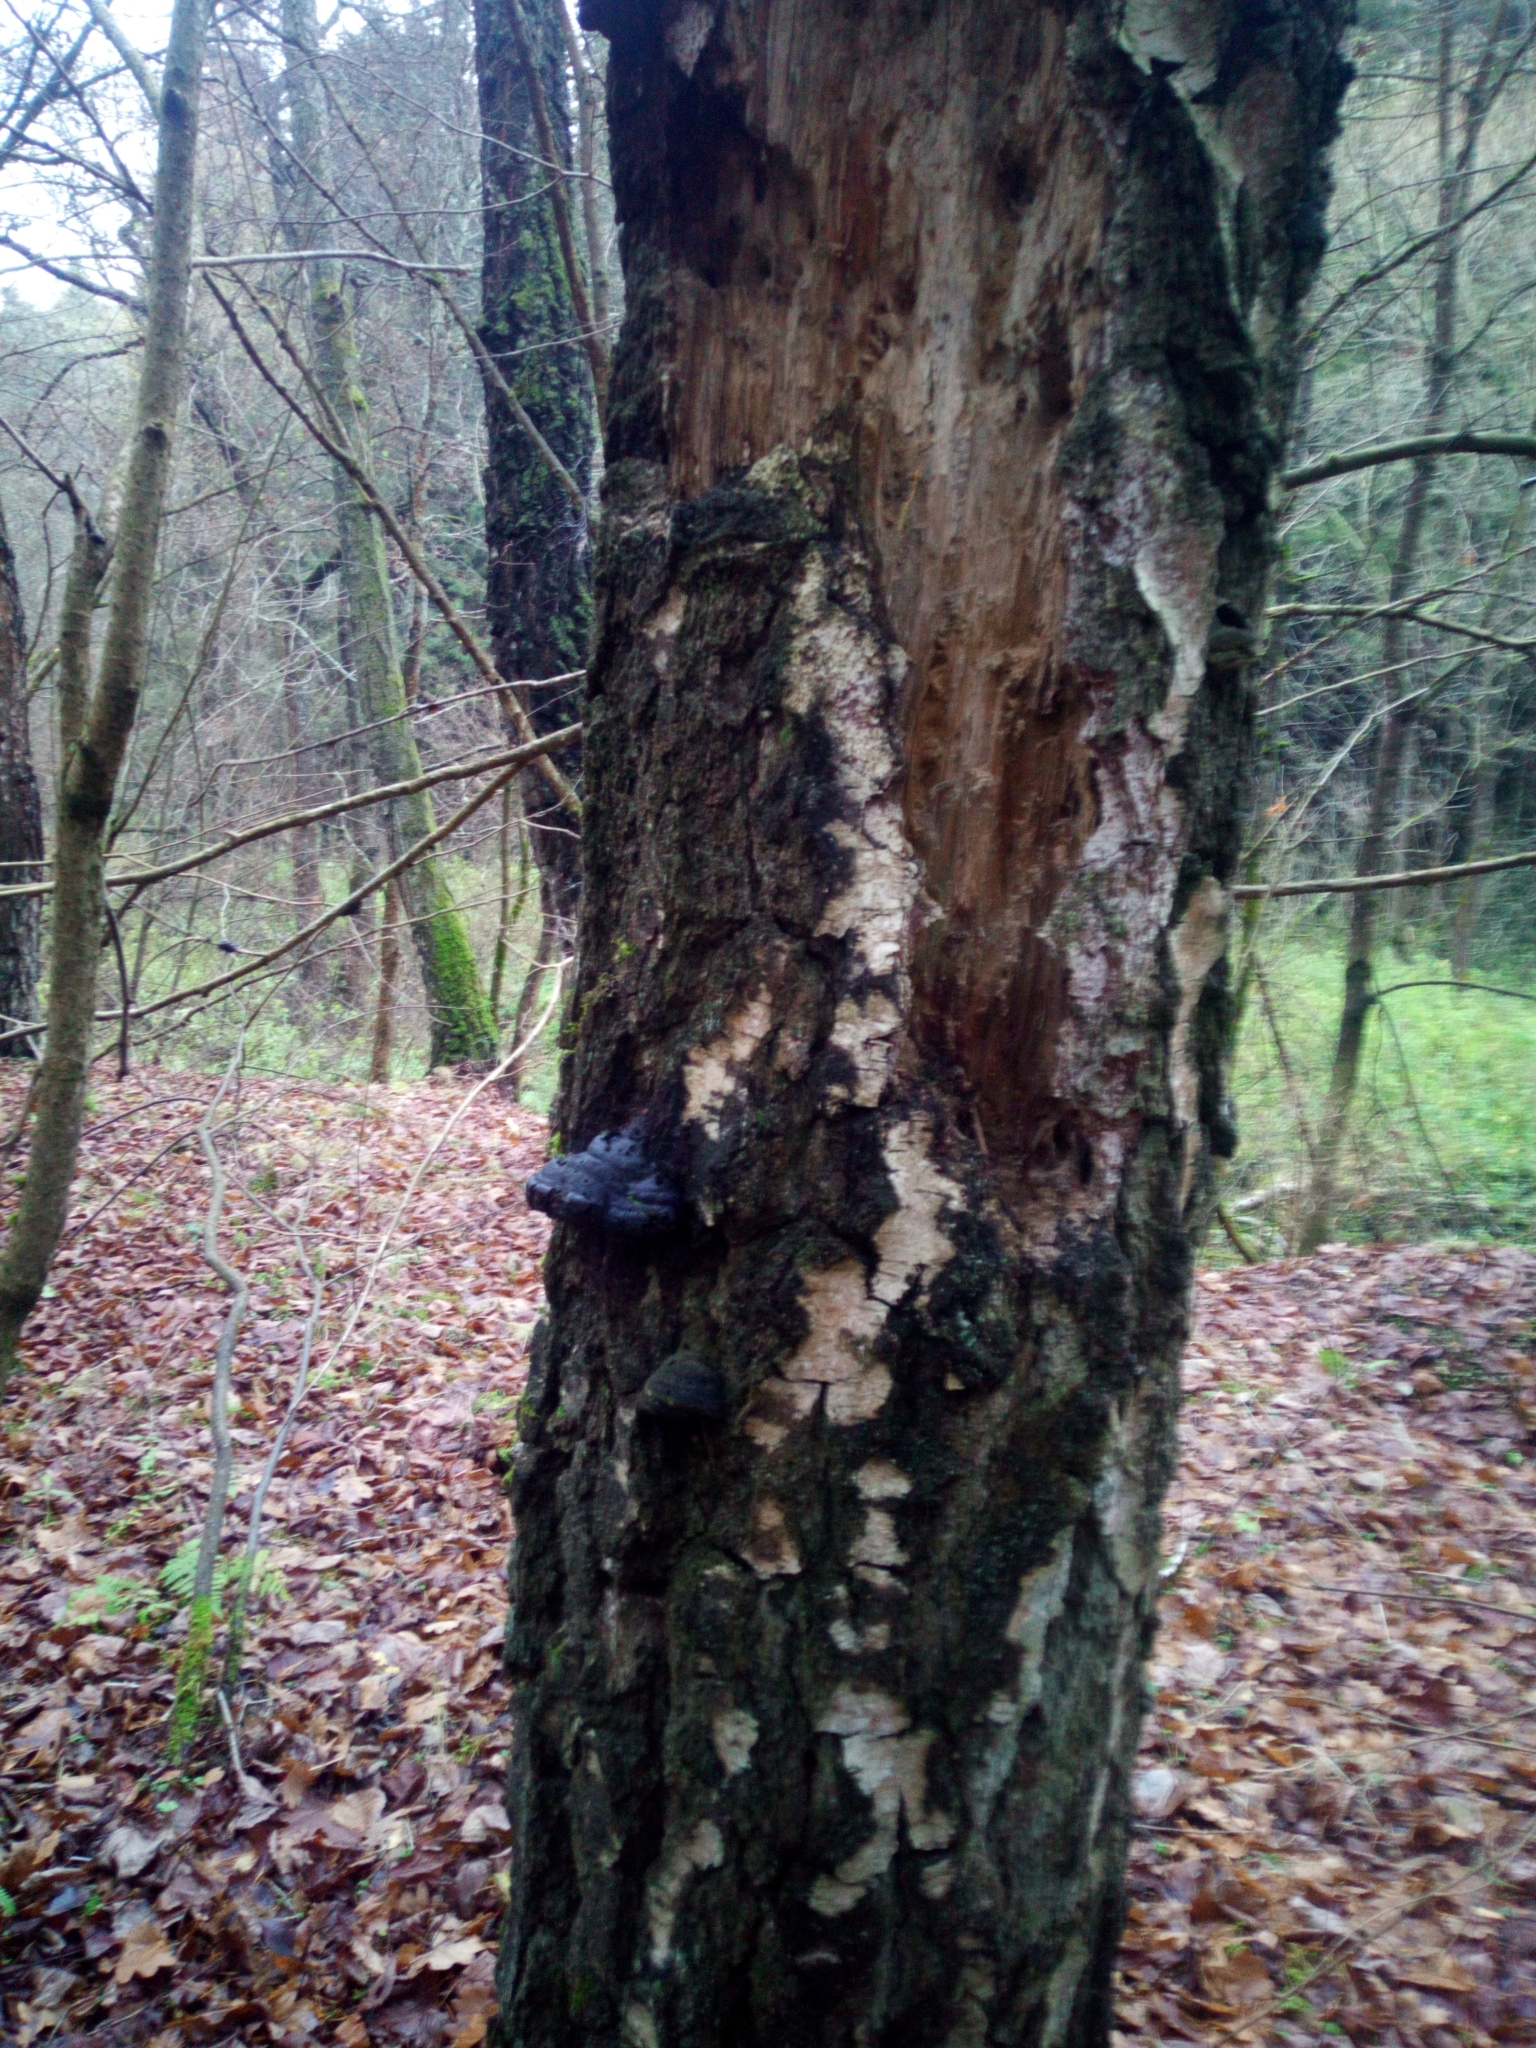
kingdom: Fungi
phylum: Basidiomycota
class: Agaricomycetes
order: Polyporales
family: Polyporaceae
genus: Fomes
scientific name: Fomes fomentarius
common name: Hoof fungus
